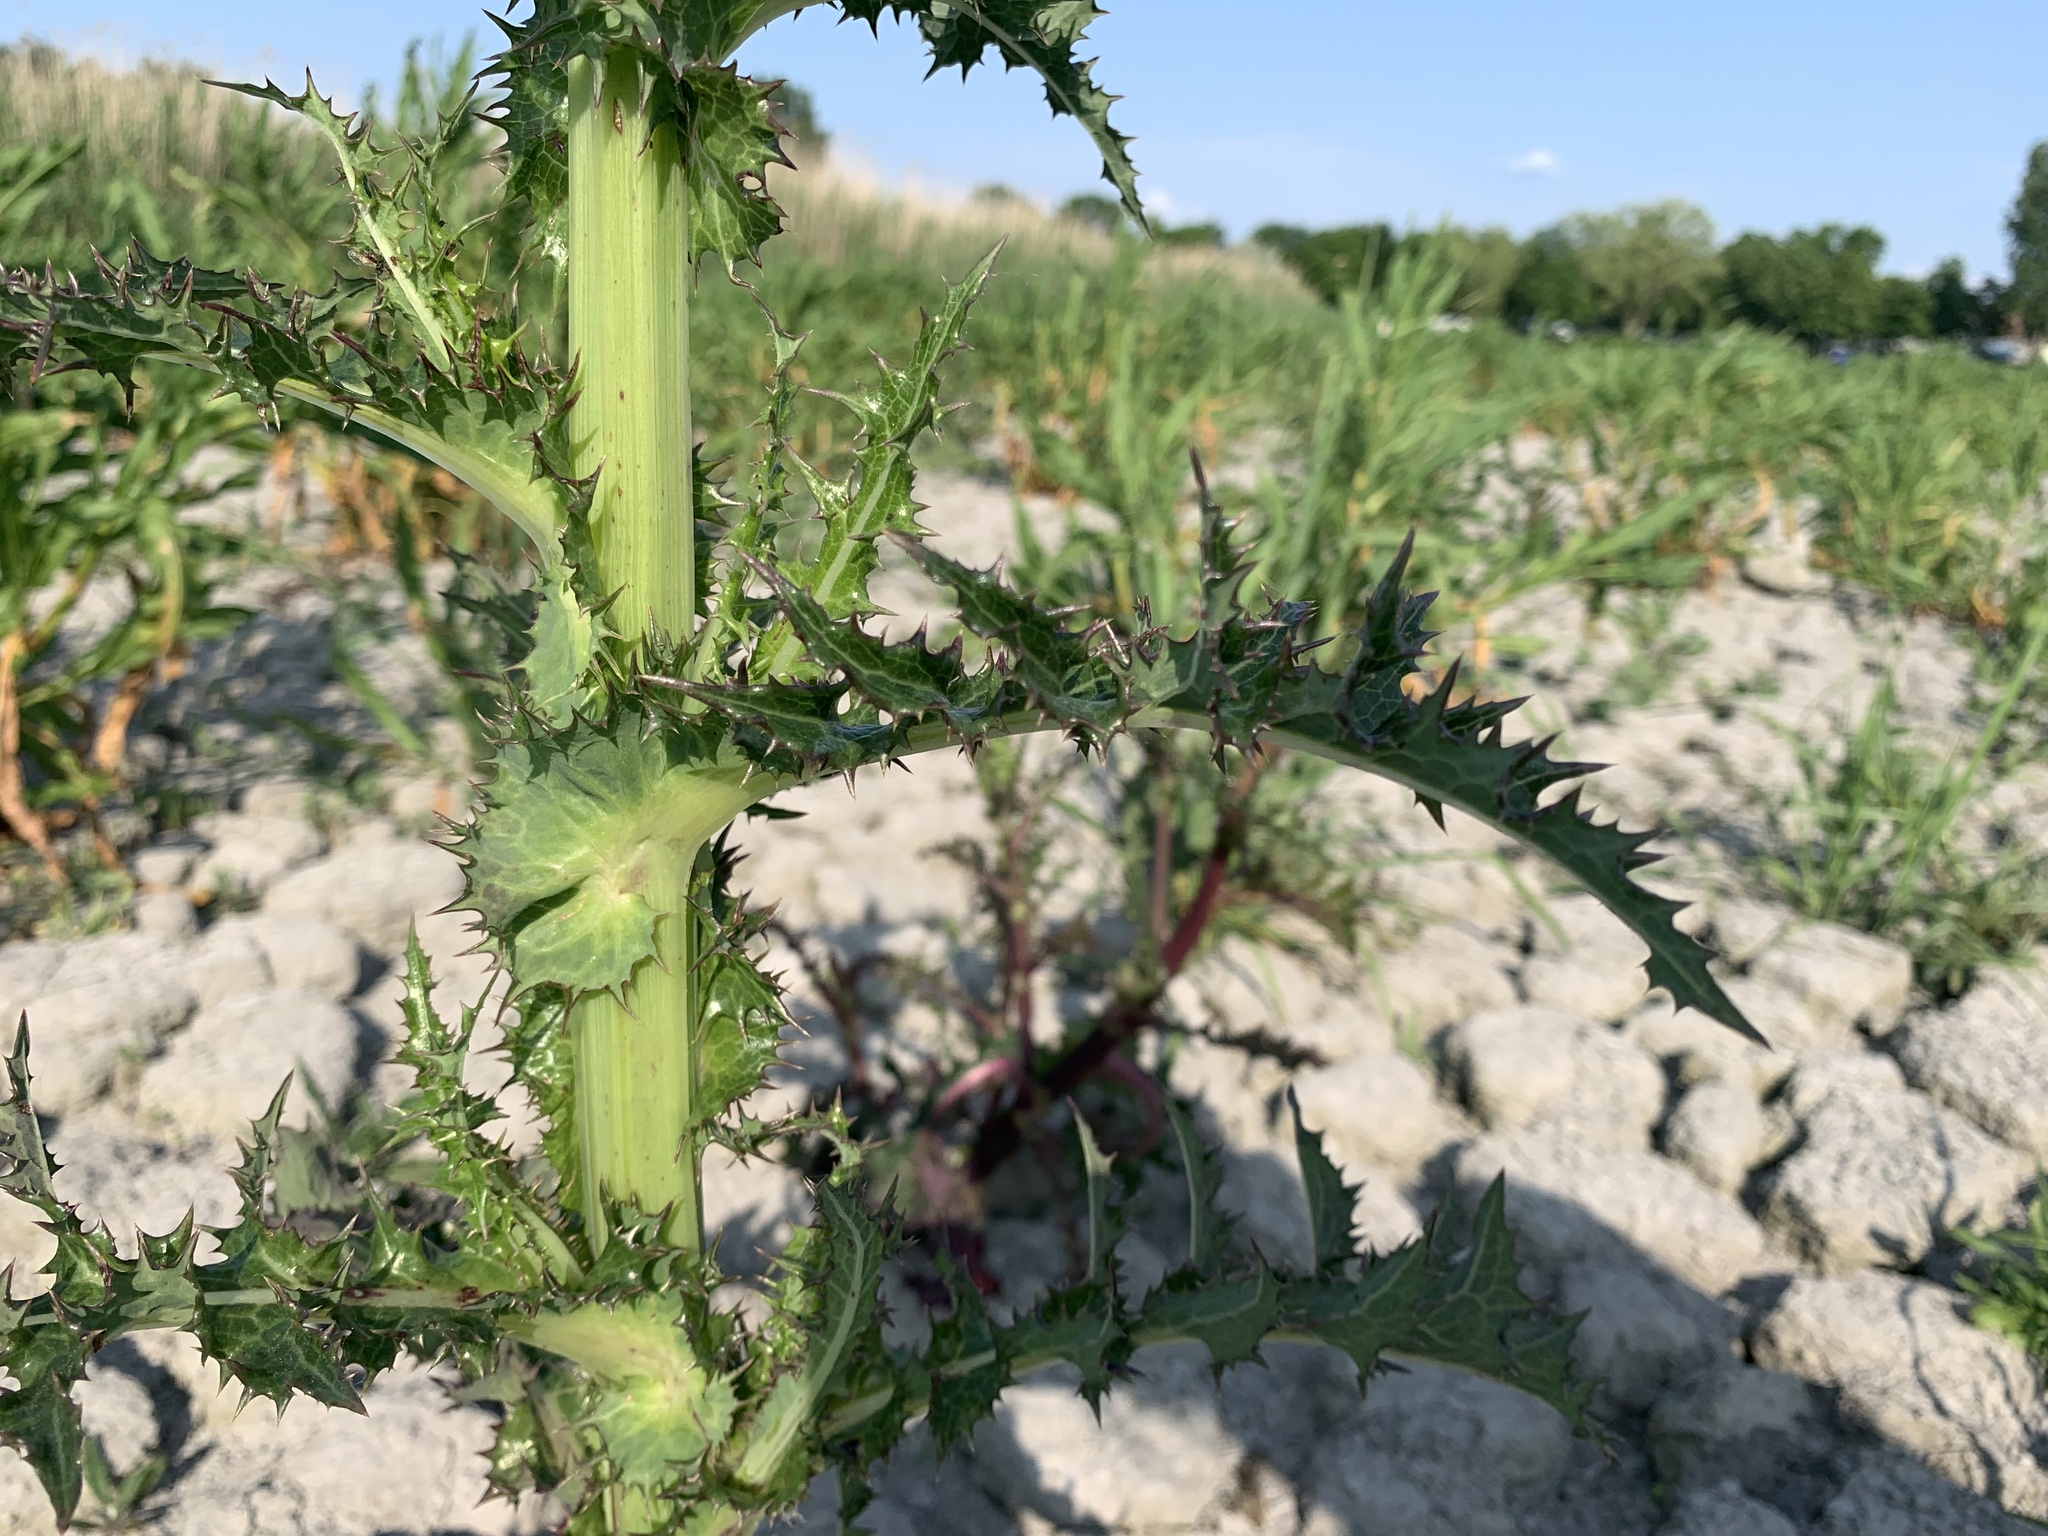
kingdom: Plantae
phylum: Tracheophyta
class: Magnoliopsida
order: Asterales
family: Asteraceae
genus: Sonchus
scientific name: Sonchus asper
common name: Prickly sow-thistle
